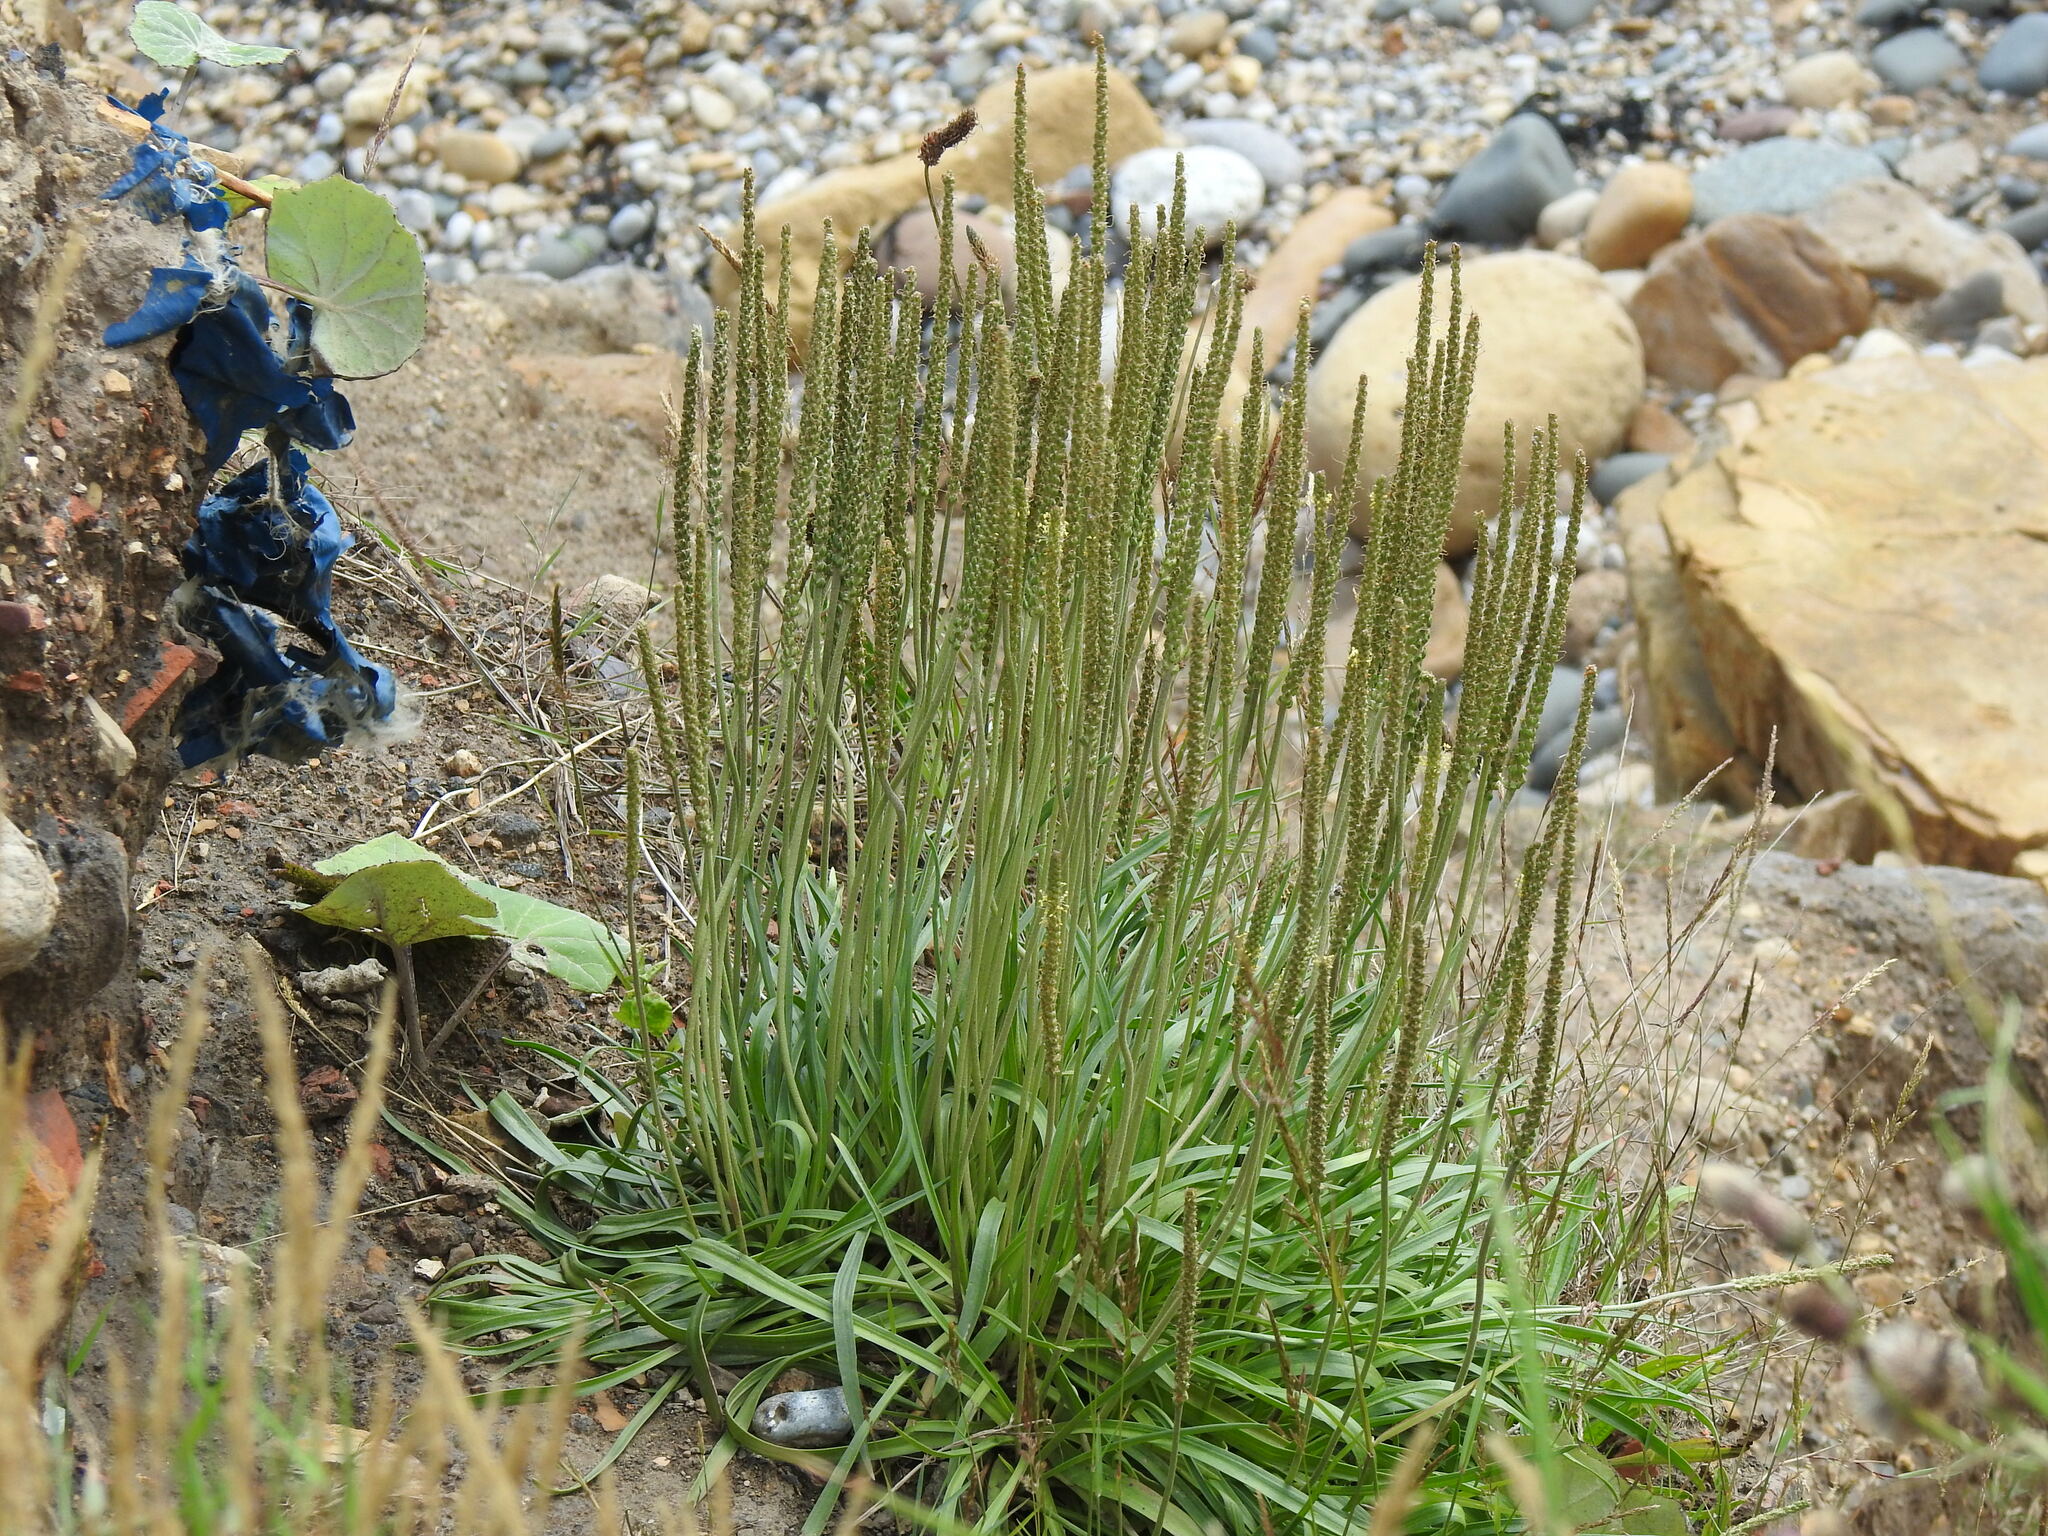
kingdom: Plantae
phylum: Tracheophyta
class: Magnoliopsida
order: Lamiales
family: Plantaginaceae
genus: Plantago
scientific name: Plantago maritima
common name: Sea plantain
